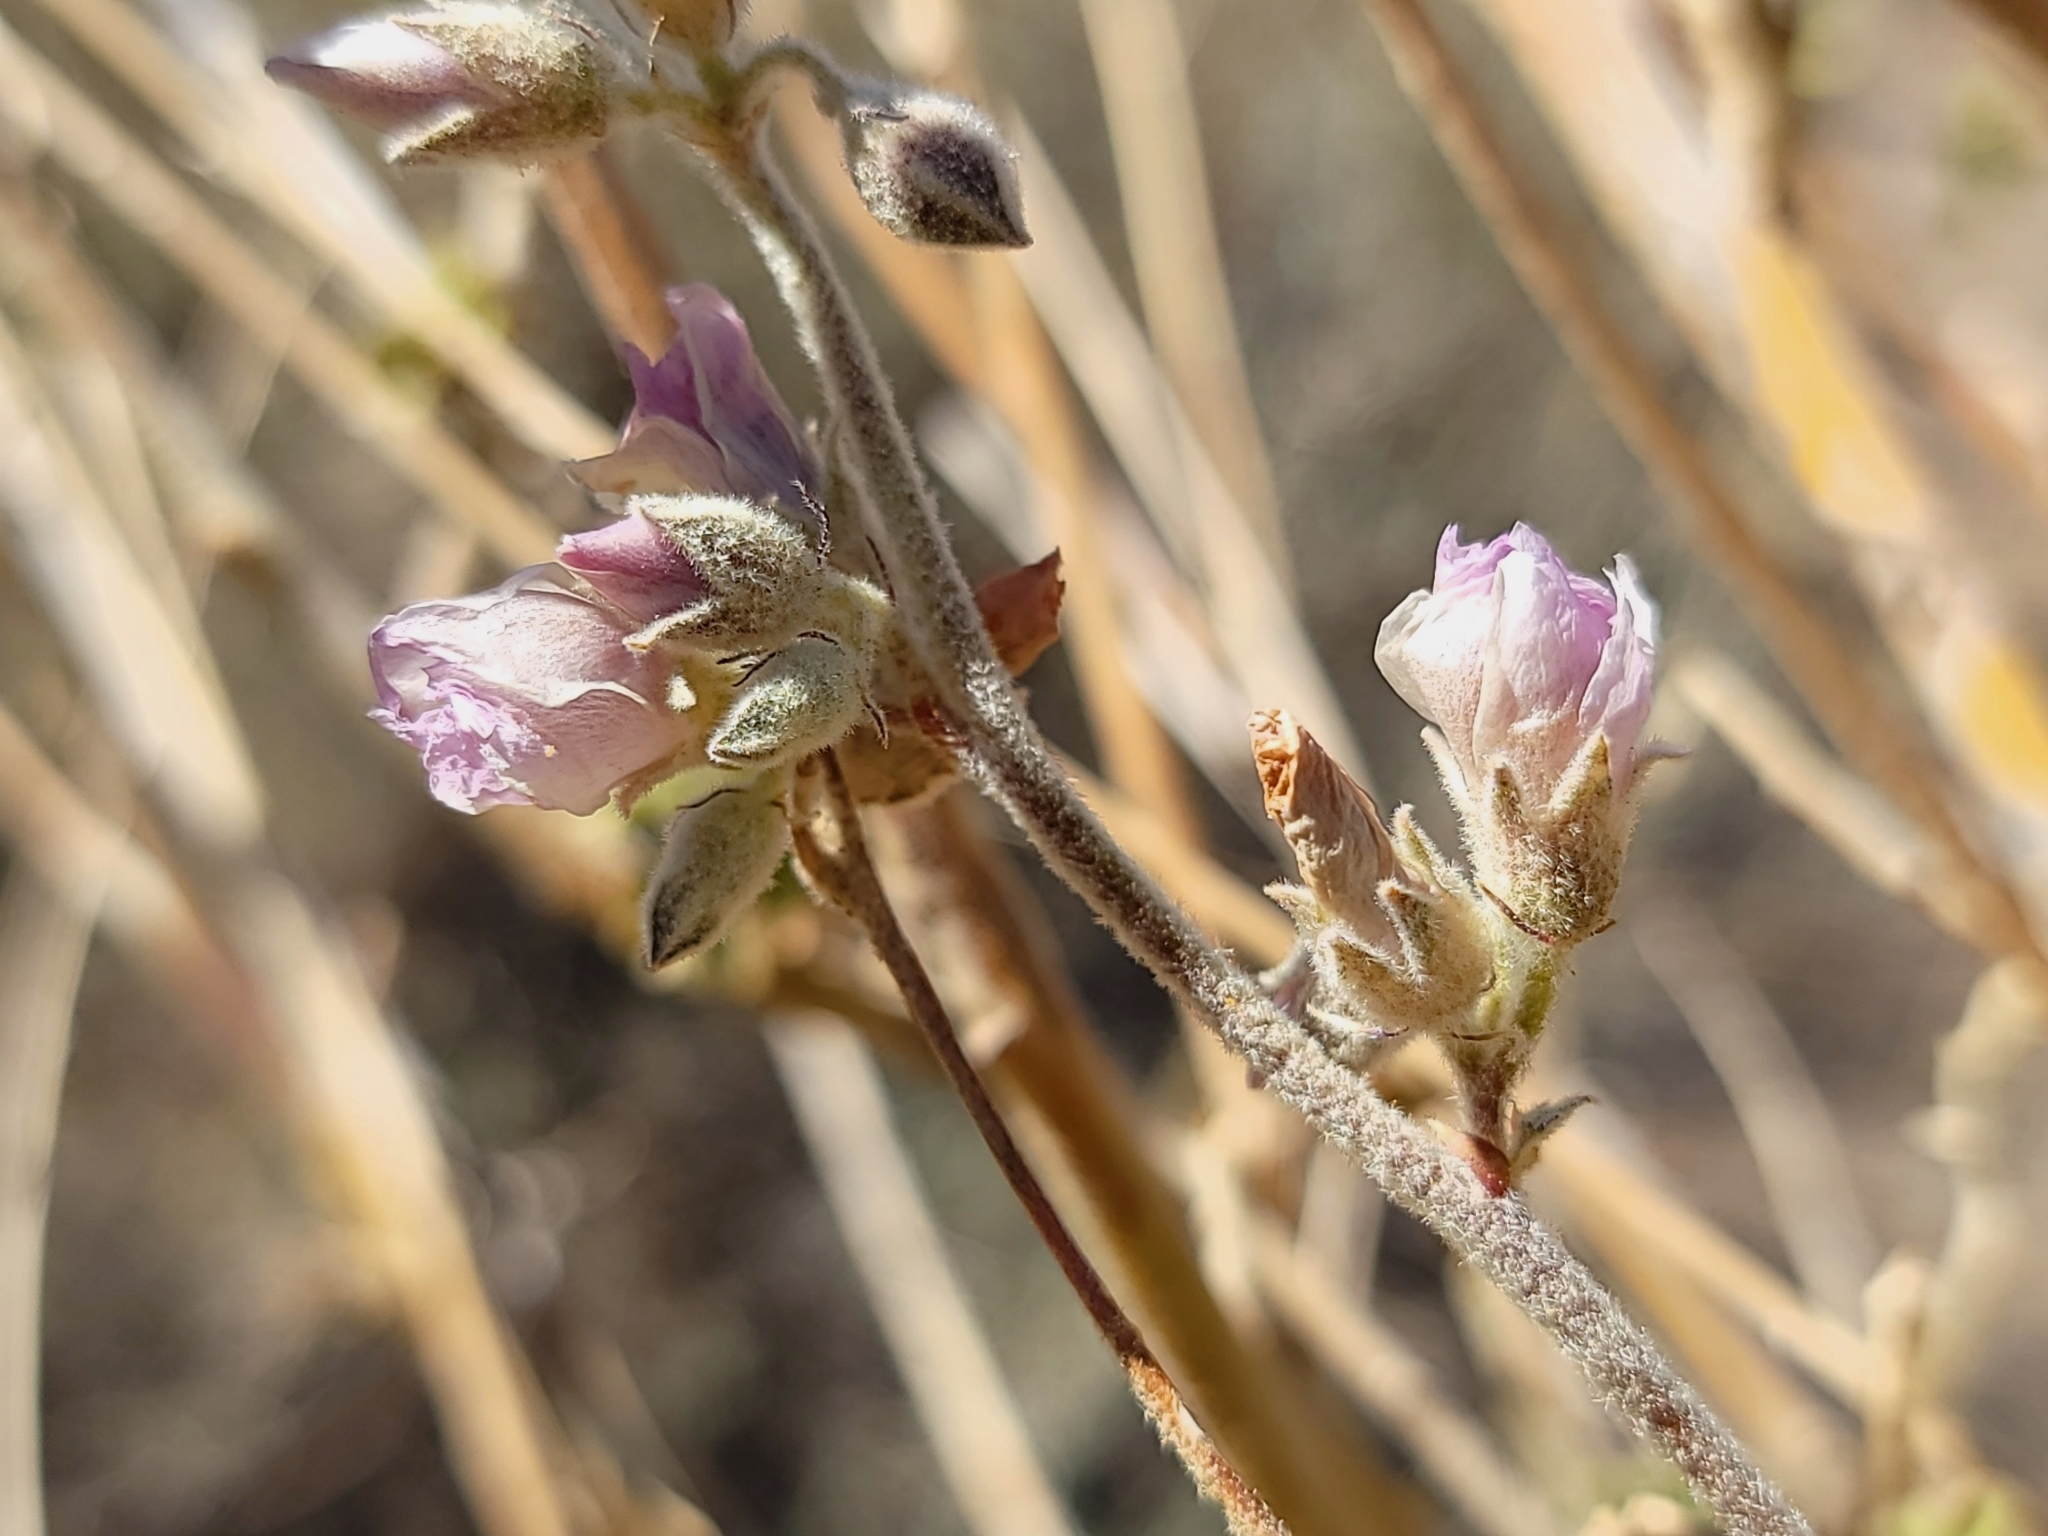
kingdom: Plantae
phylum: Tracheophyta
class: Magnoliopsida
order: Malvales
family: Malvaceae
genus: Malacothamnus
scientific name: Malacothamnus fremontii
